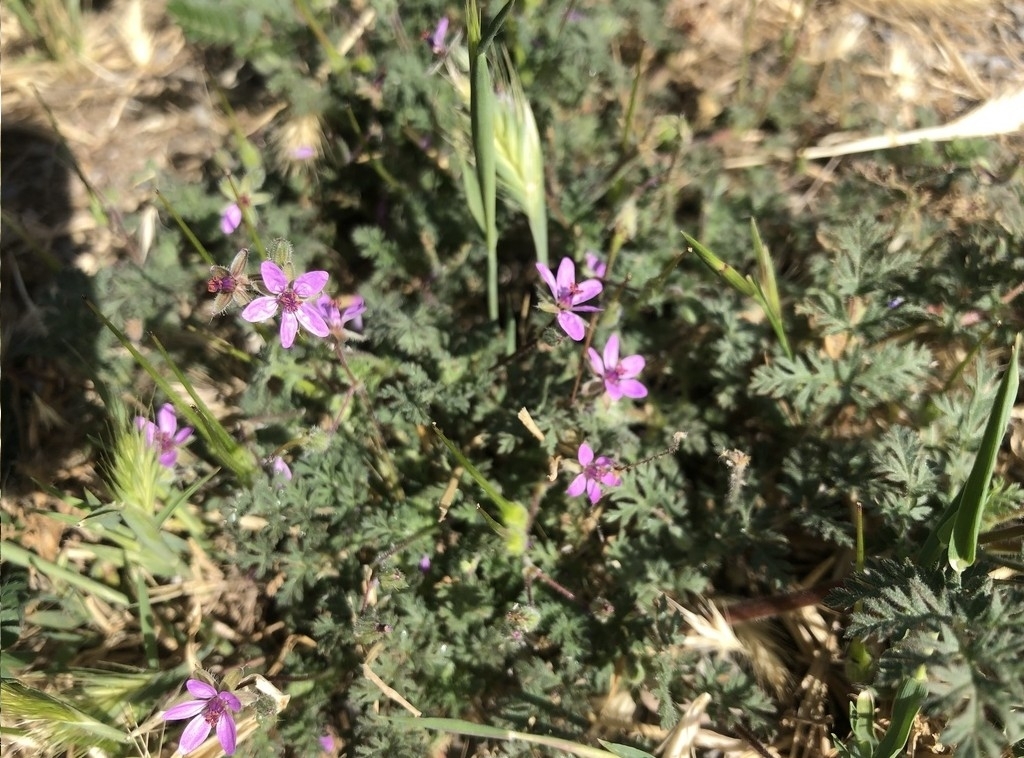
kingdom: Plantae
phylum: Tracheophyta
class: Magnoliopsida
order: Geraniales
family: Geraniaceae
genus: Erodium
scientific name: Erodium cicutarium
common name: Common stork's-bill
